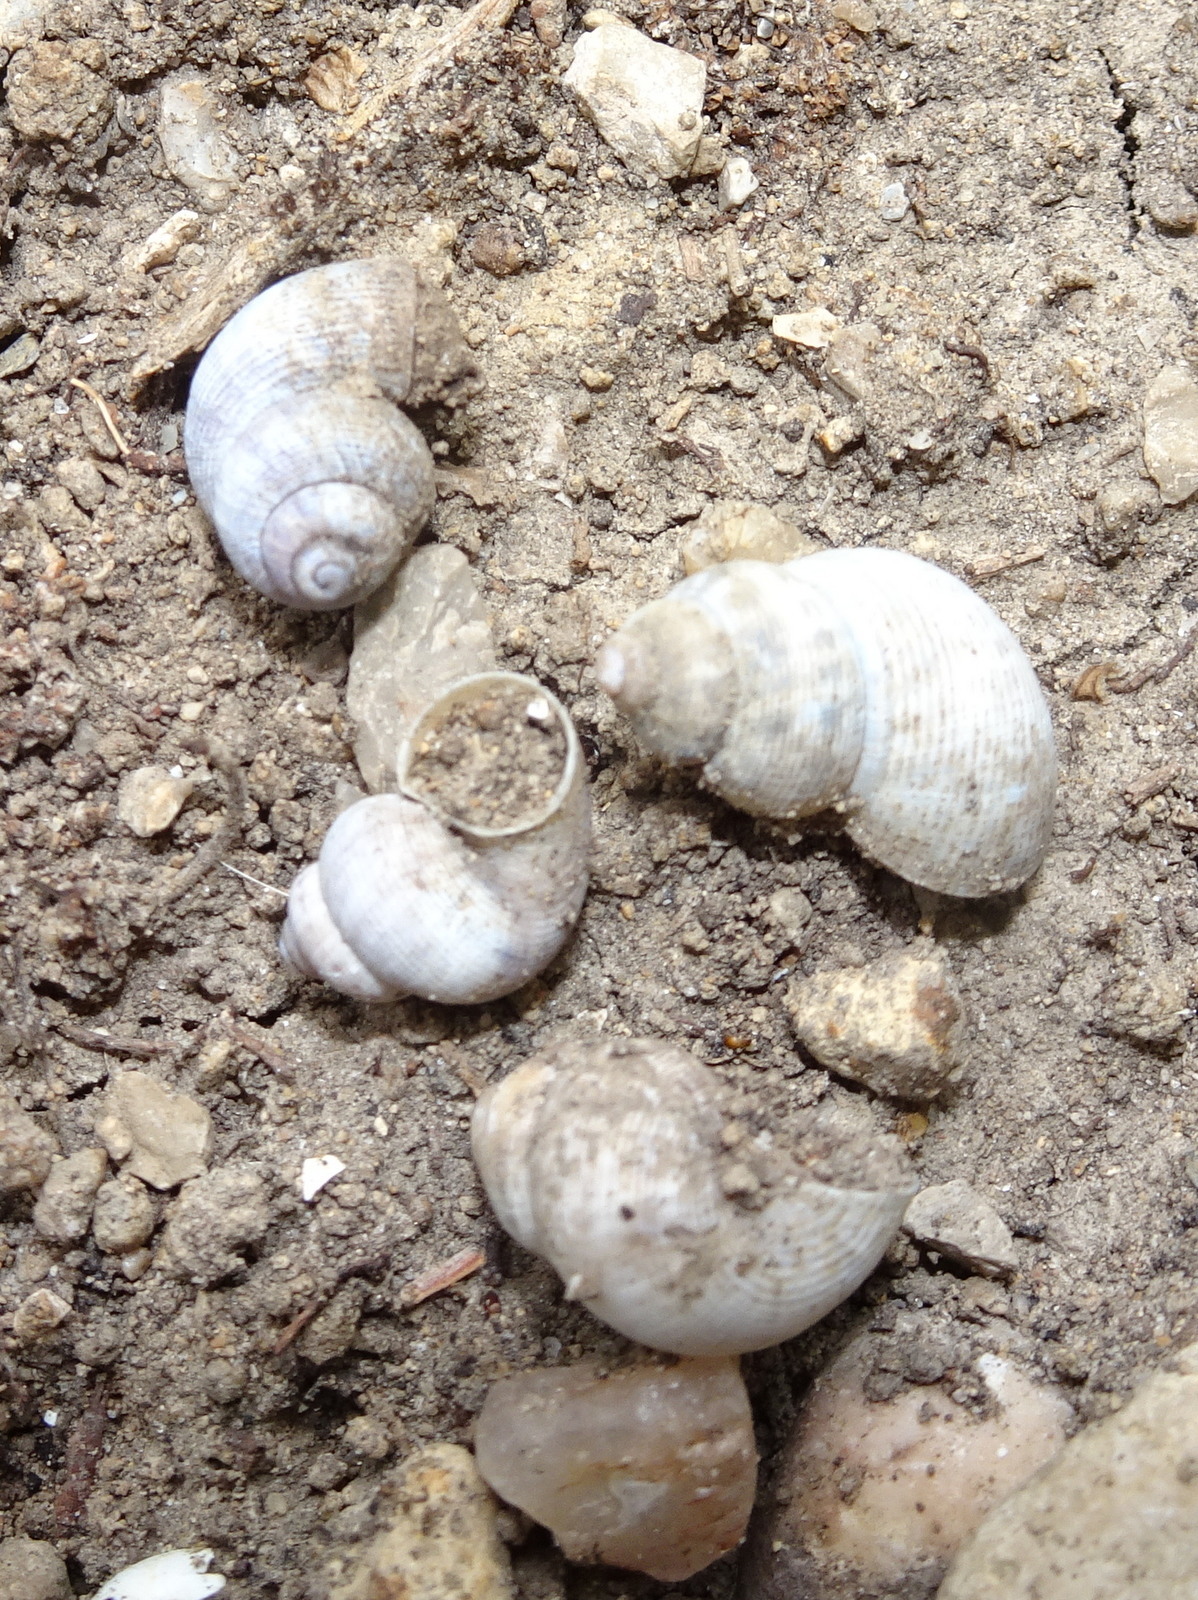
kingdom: Animalia
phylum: Mollusca
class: Gastropoda
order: Littorinimorpha
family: Pomatiidae
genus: Pomatias
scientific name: Pomatias elegans
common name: Red-mouthed snail
